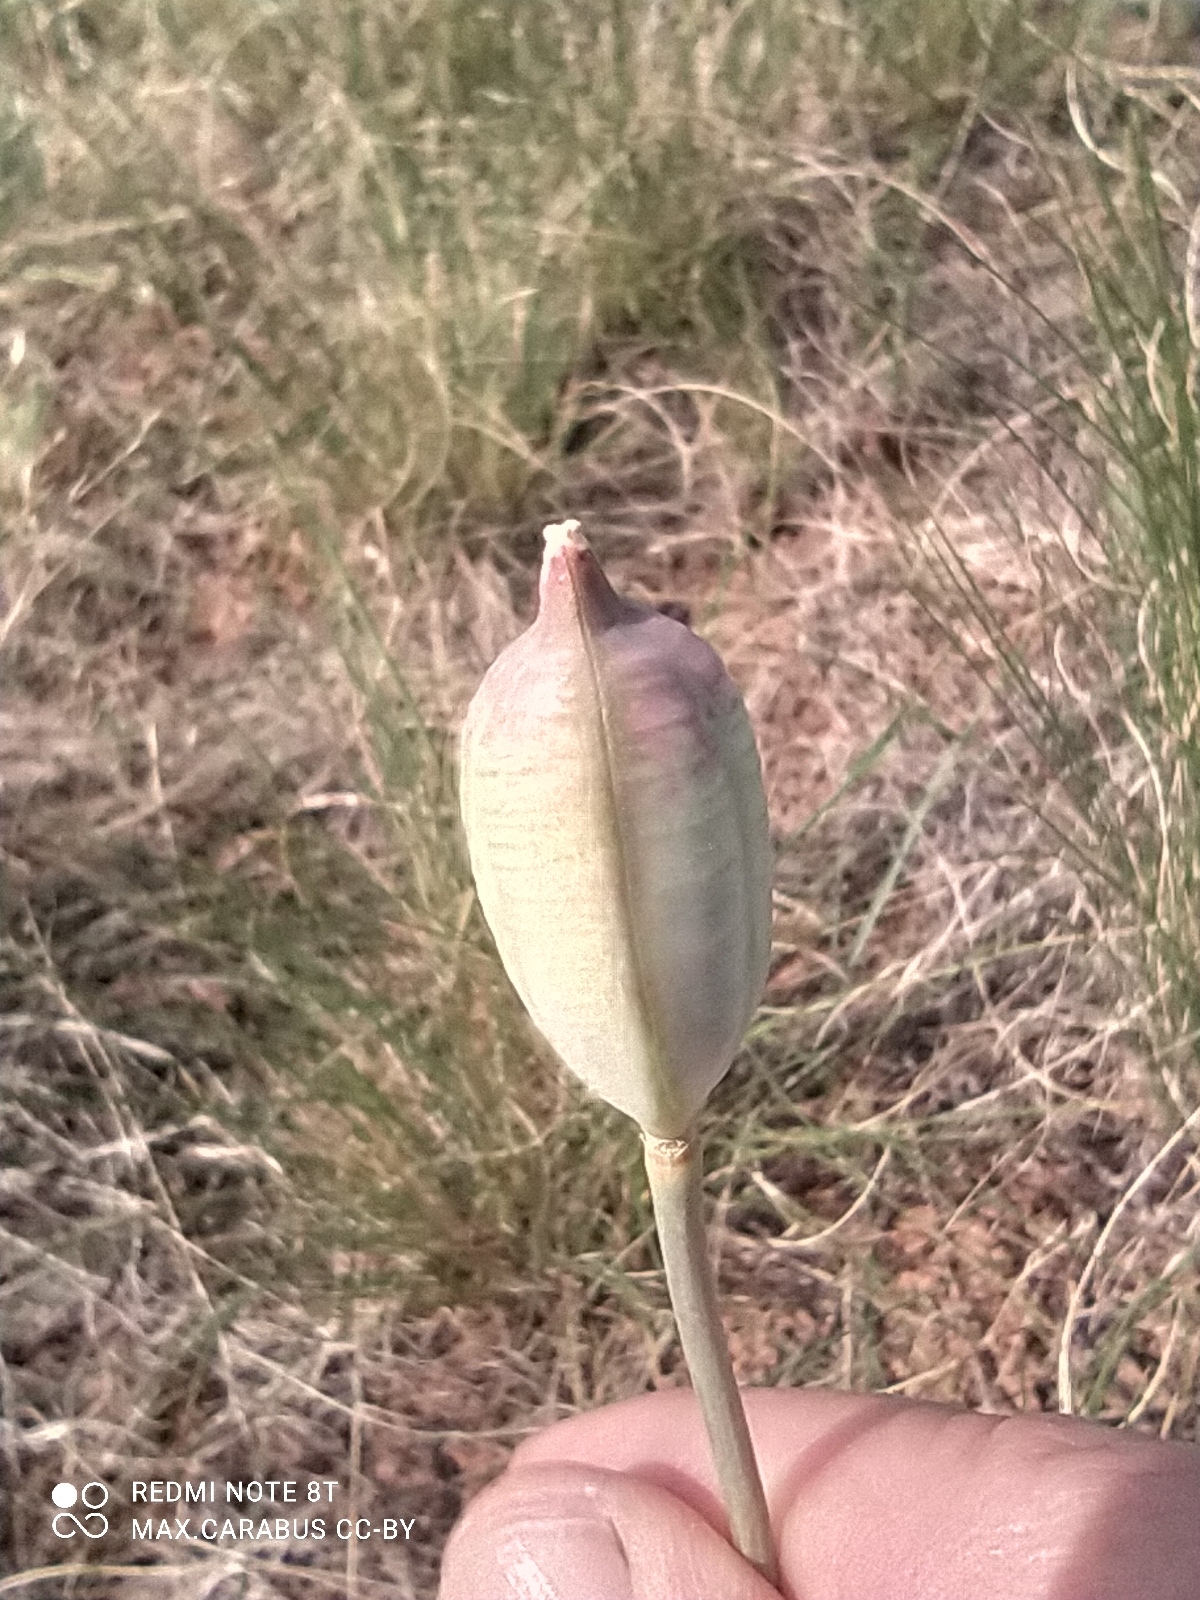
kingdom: Plantae
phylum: Tracheophyta
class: Liliopsida
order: Liliales
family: Liliaceae
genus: Tulipa
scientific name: Tulipa patens
